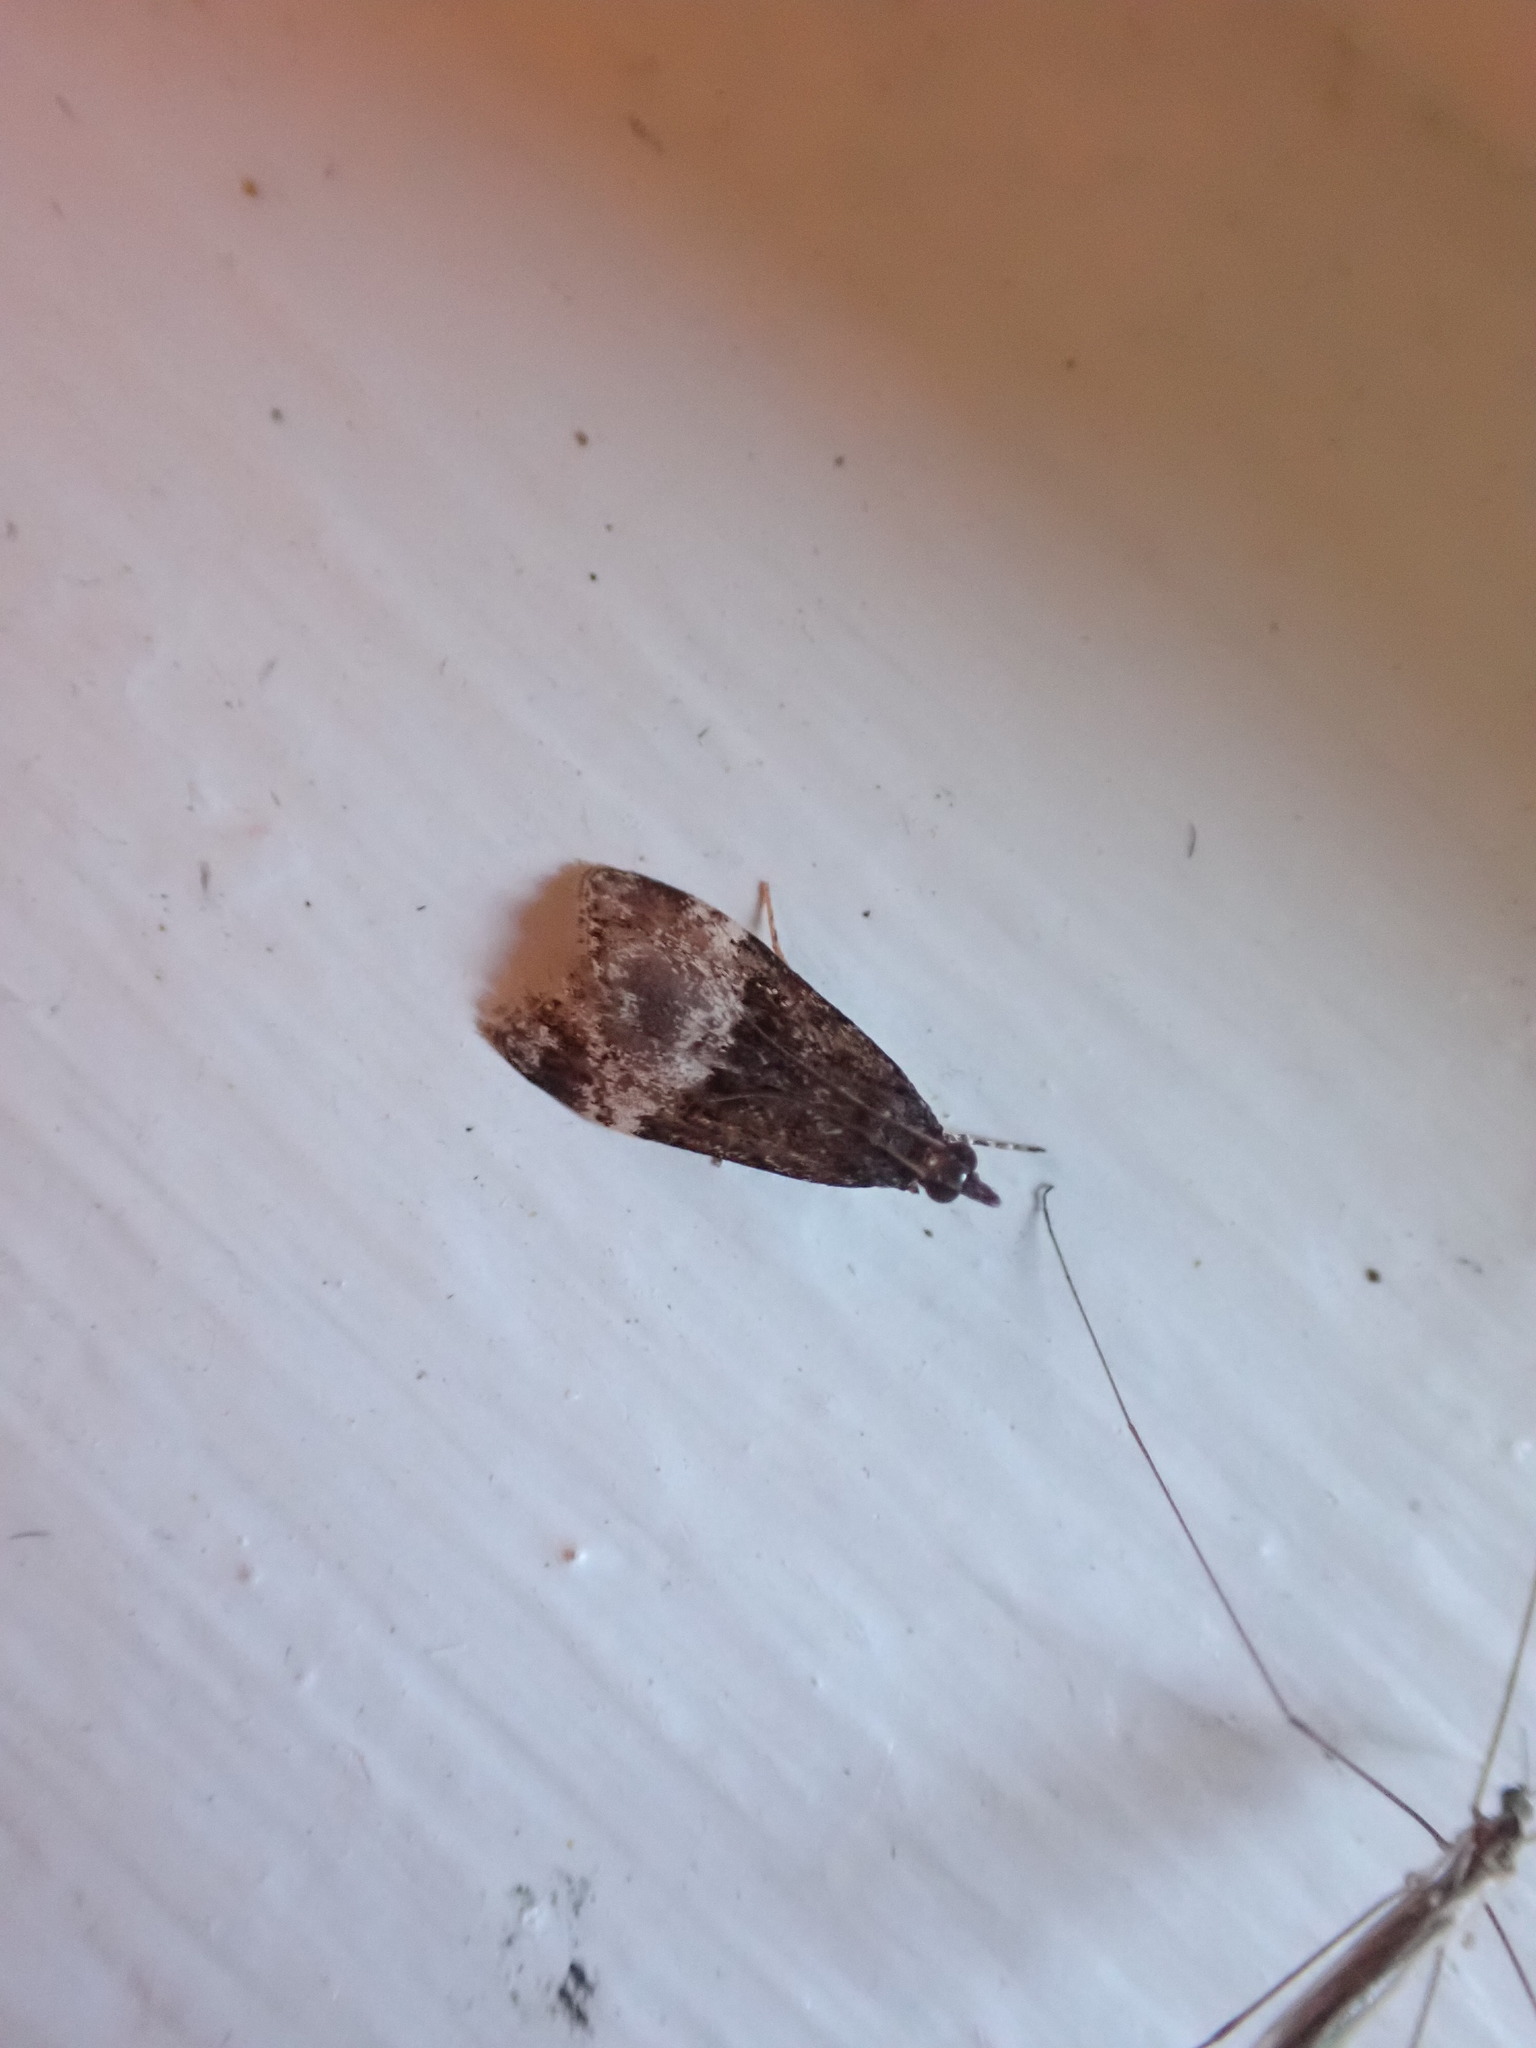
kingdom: Animalia
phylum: Arthropoda
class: Insecta
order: Lepidoptera
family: Crambidae
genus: Scoparia
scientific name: Scoparia minusculalis
